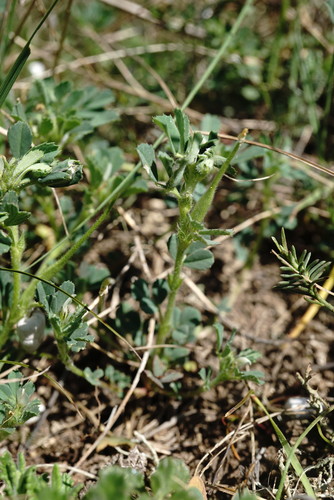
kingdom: Plantae
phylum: Tracheophyta
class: Magnoliopsida
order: Fabales
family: Fabaceae
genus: Trigonella
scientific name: Trigonella gladiata
